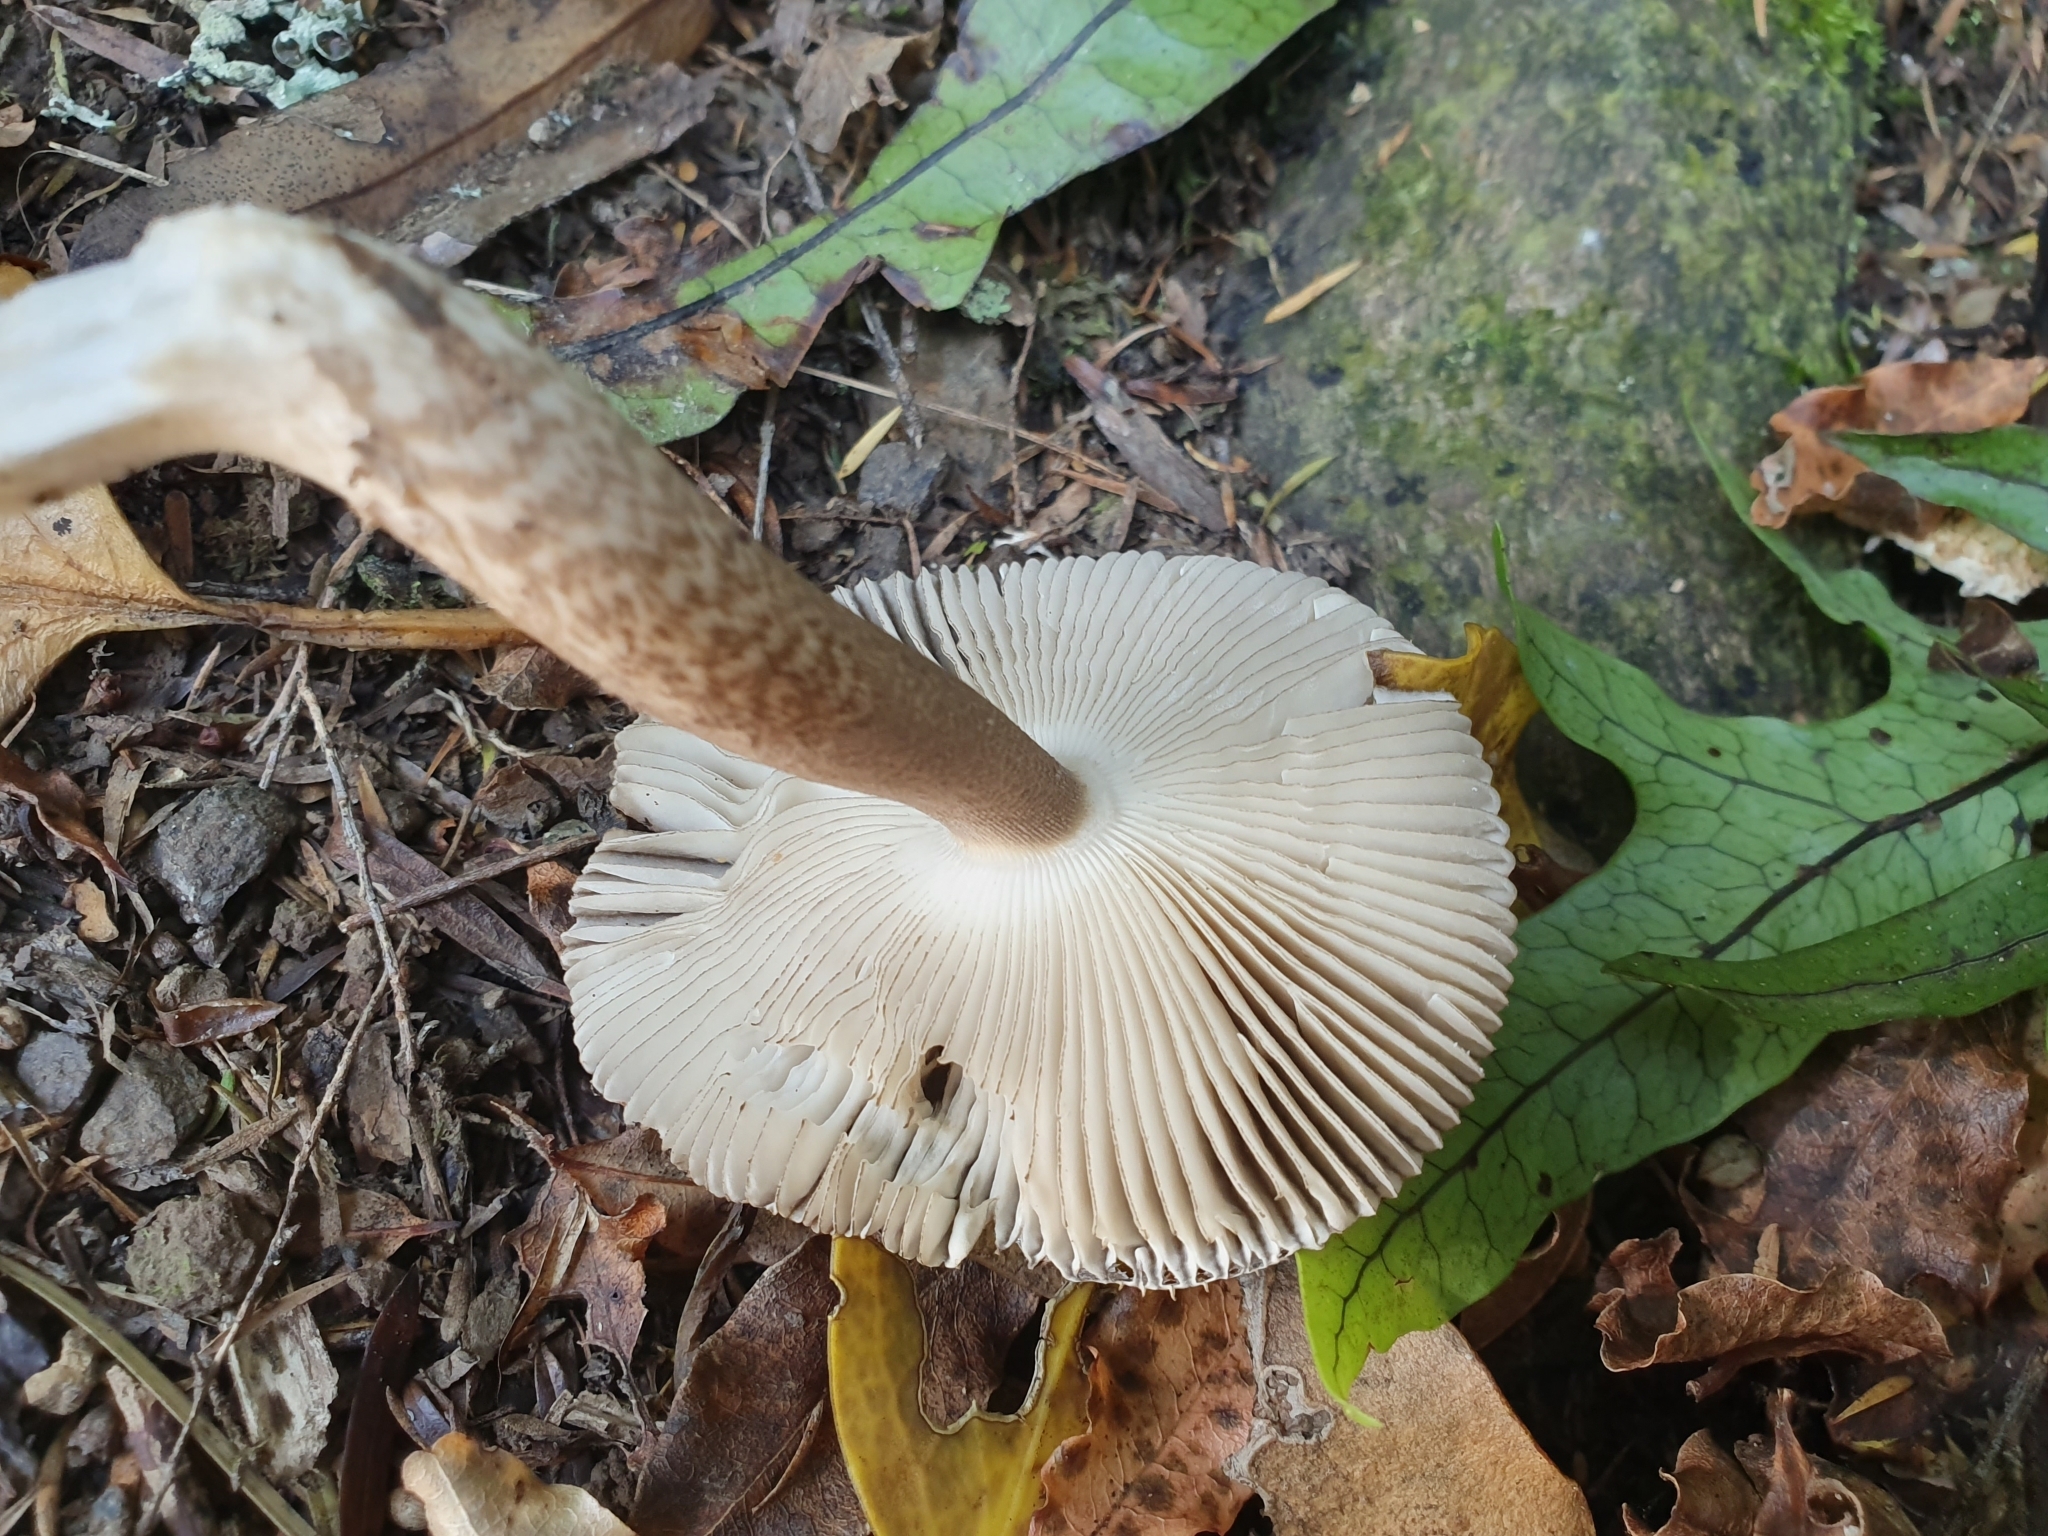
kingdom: Fungi
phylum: Basidiomycota
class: Agaricomycetes
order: Agaricales
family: Amanitaceae
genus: Amanita
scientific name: Amanita pekeoides
